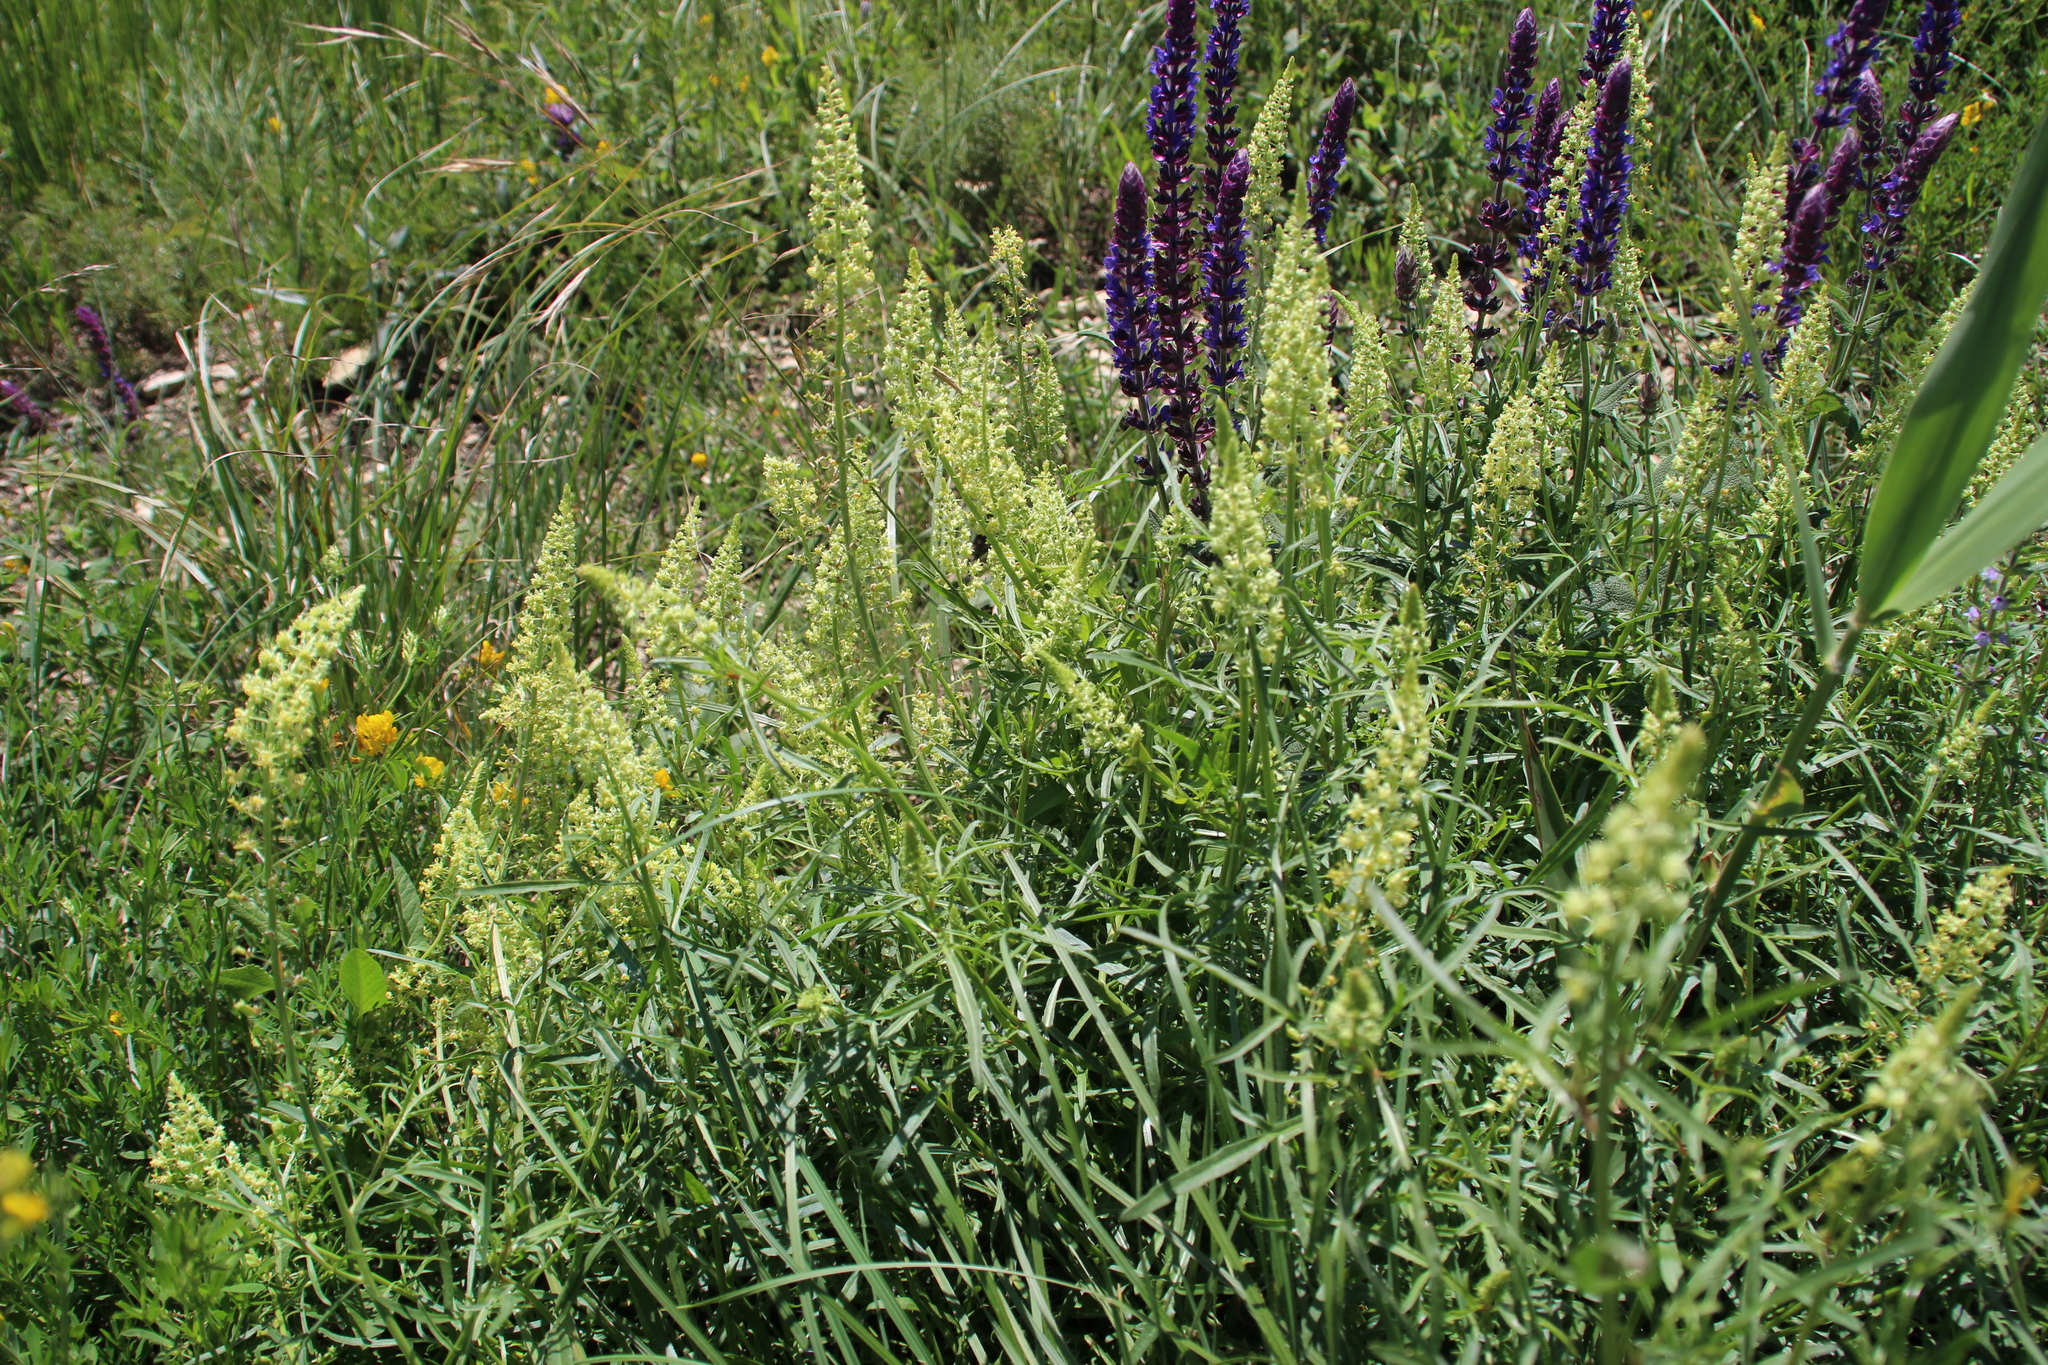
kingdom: Plantae
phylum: Tracheophyta
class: Magnoliopsida
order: Brassicales
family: Resedaceae
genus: Reseda
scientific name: Reseda lutea
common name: Wild mignonette
